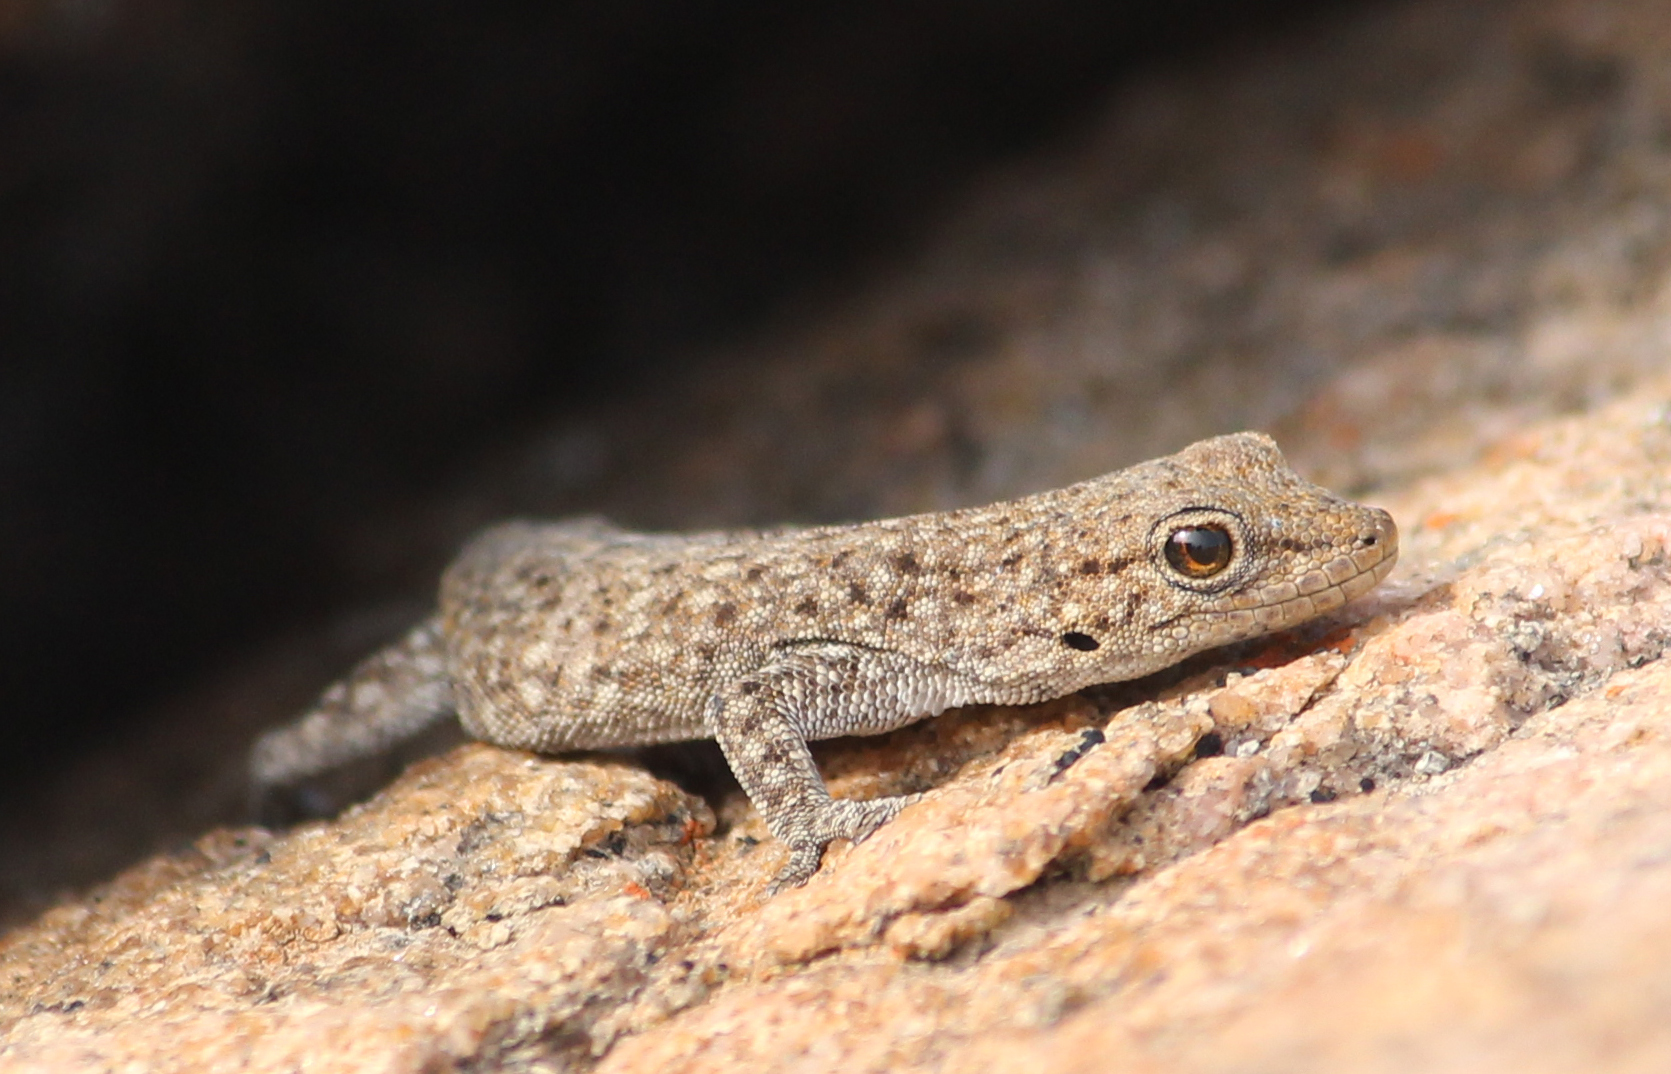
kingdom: Animalia
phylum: Chordata
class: Squamata
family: Gekkonidae
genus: Rhoptropella
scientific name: Rhoptropella ocellata
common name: Namaqua day gecko
